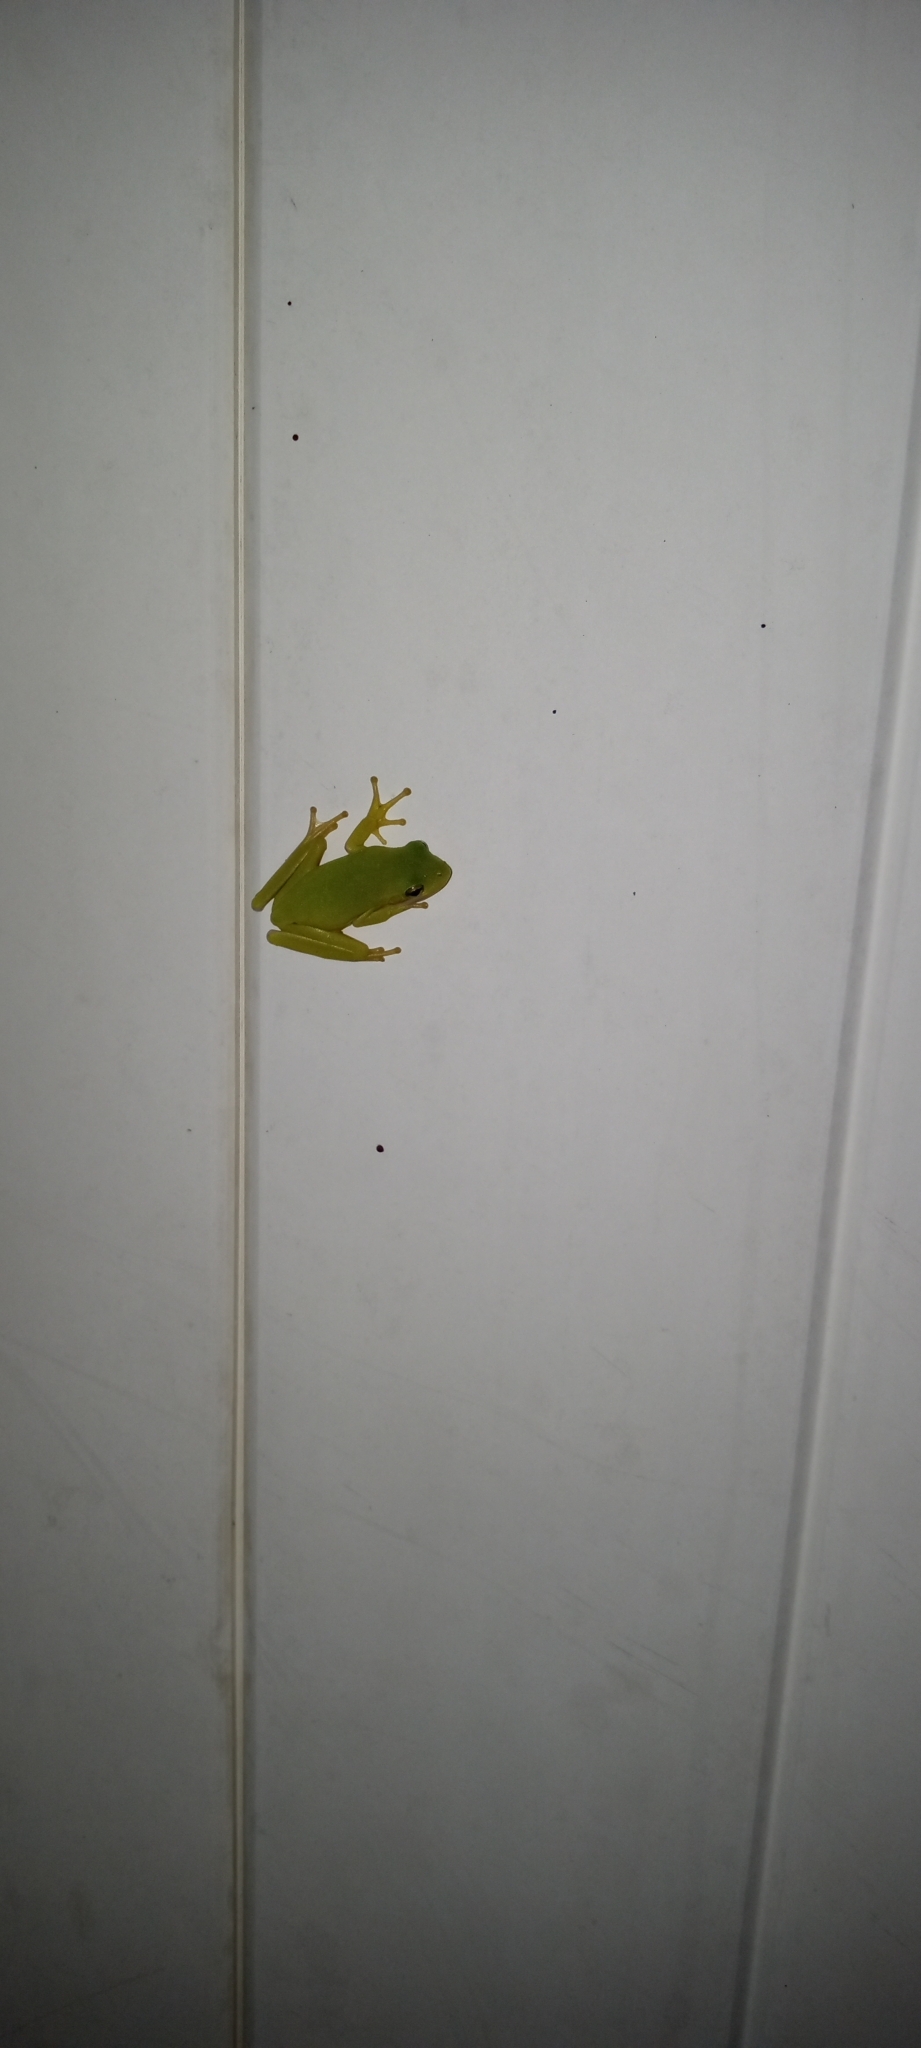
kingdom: Animalia
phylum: Chordata
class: Amphibia
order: Anura
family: Hylidae
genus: Dryophytes
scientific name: Dryophytes cinereus
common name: Green treefrog
